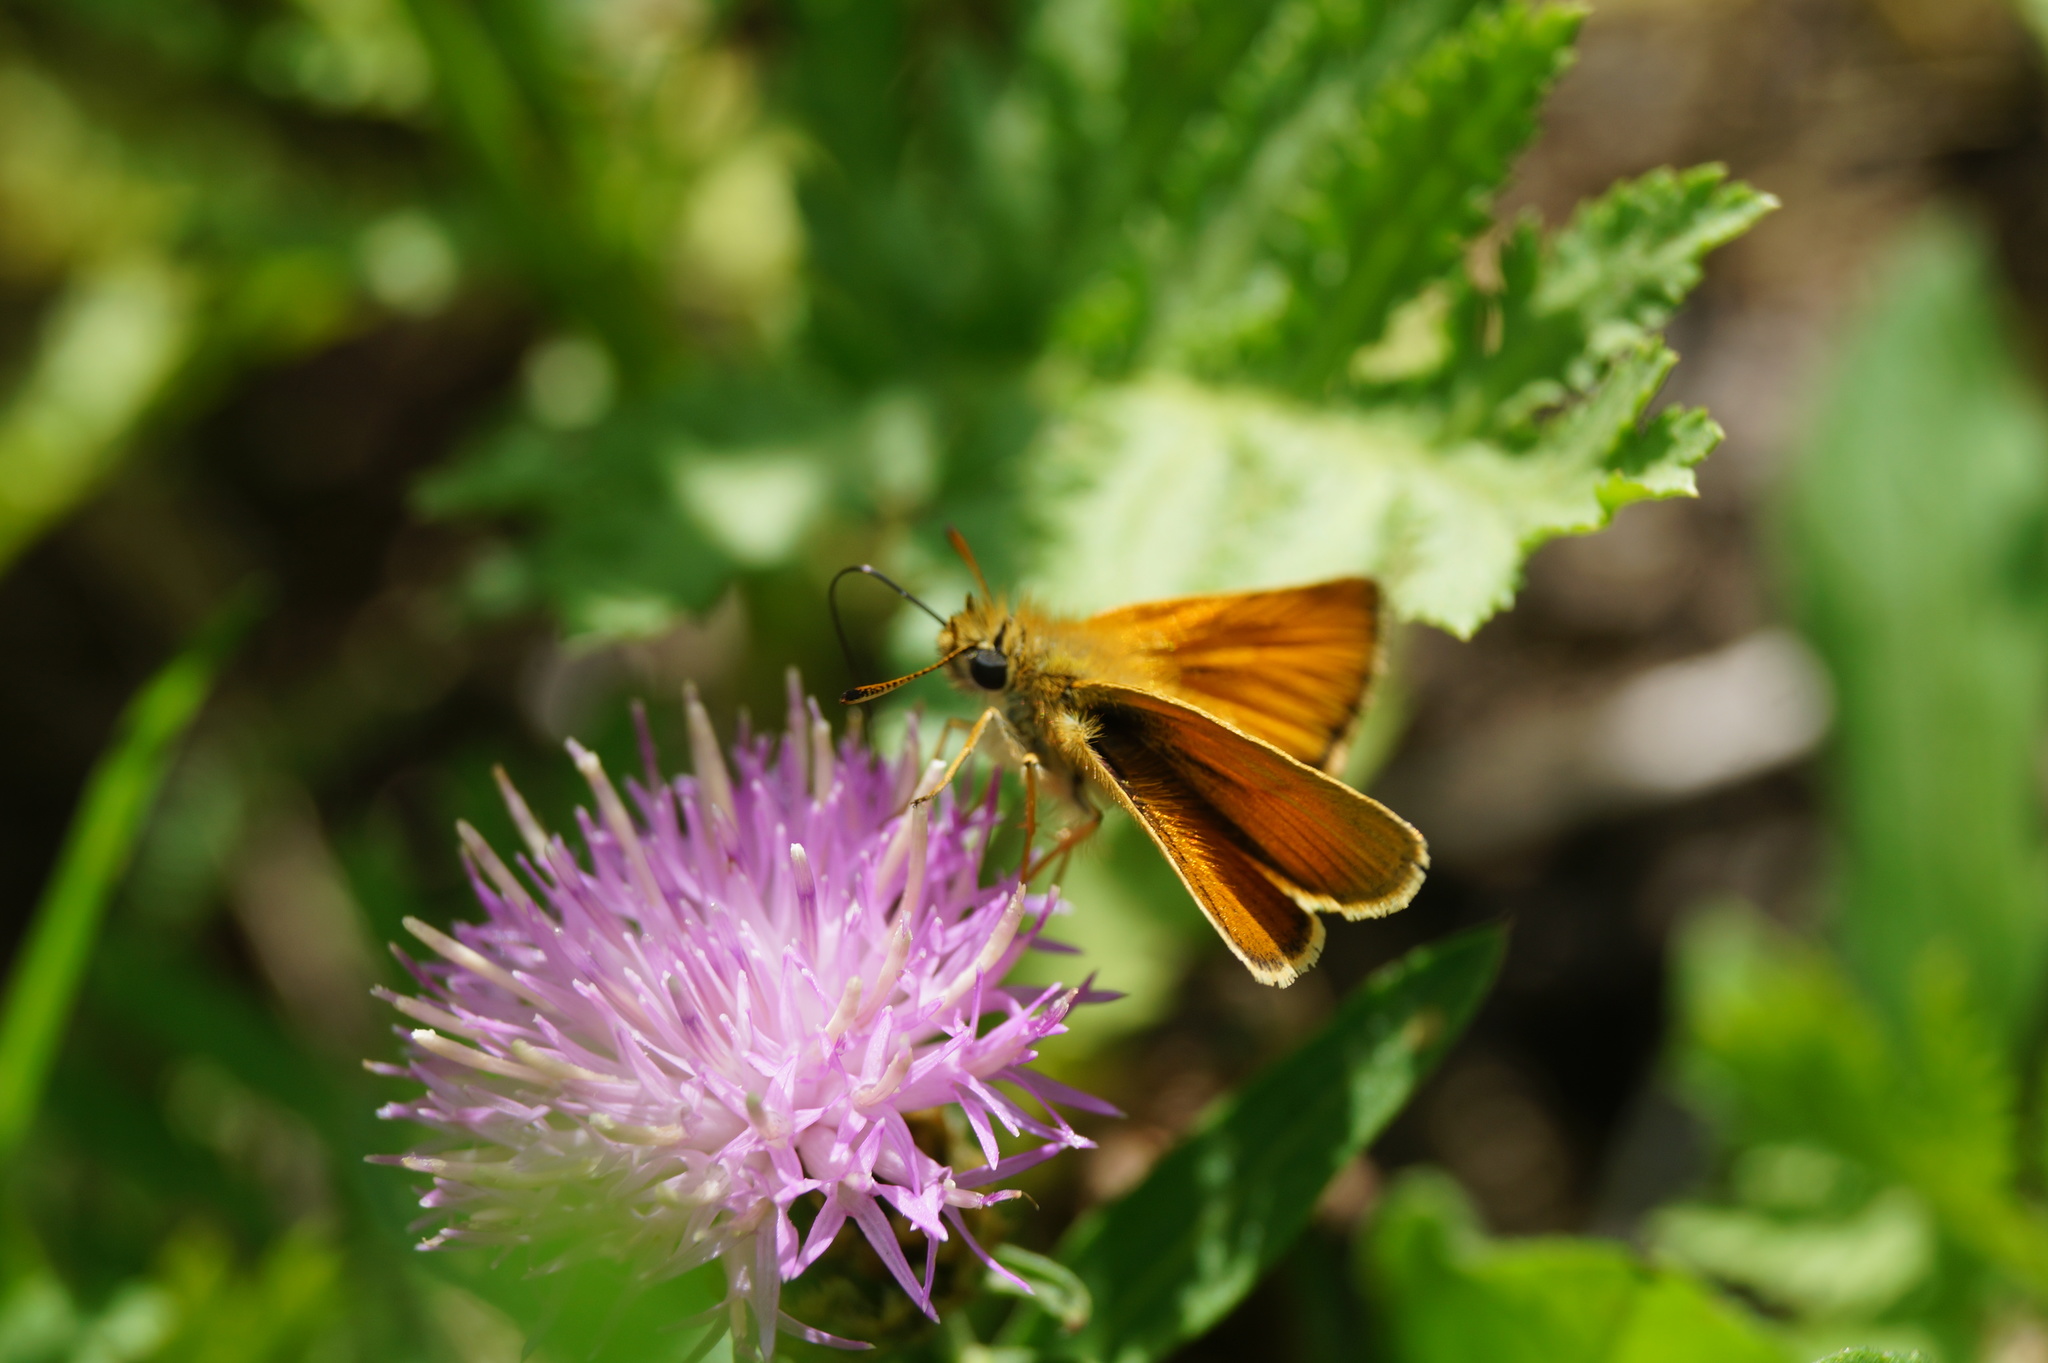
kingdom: Animalia
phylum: Arthropoda
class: Insecta
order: Lepidoptera
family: Hesperiidae
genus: Thymelicus
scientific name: Thymelicus lineola
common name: Essex skipper
